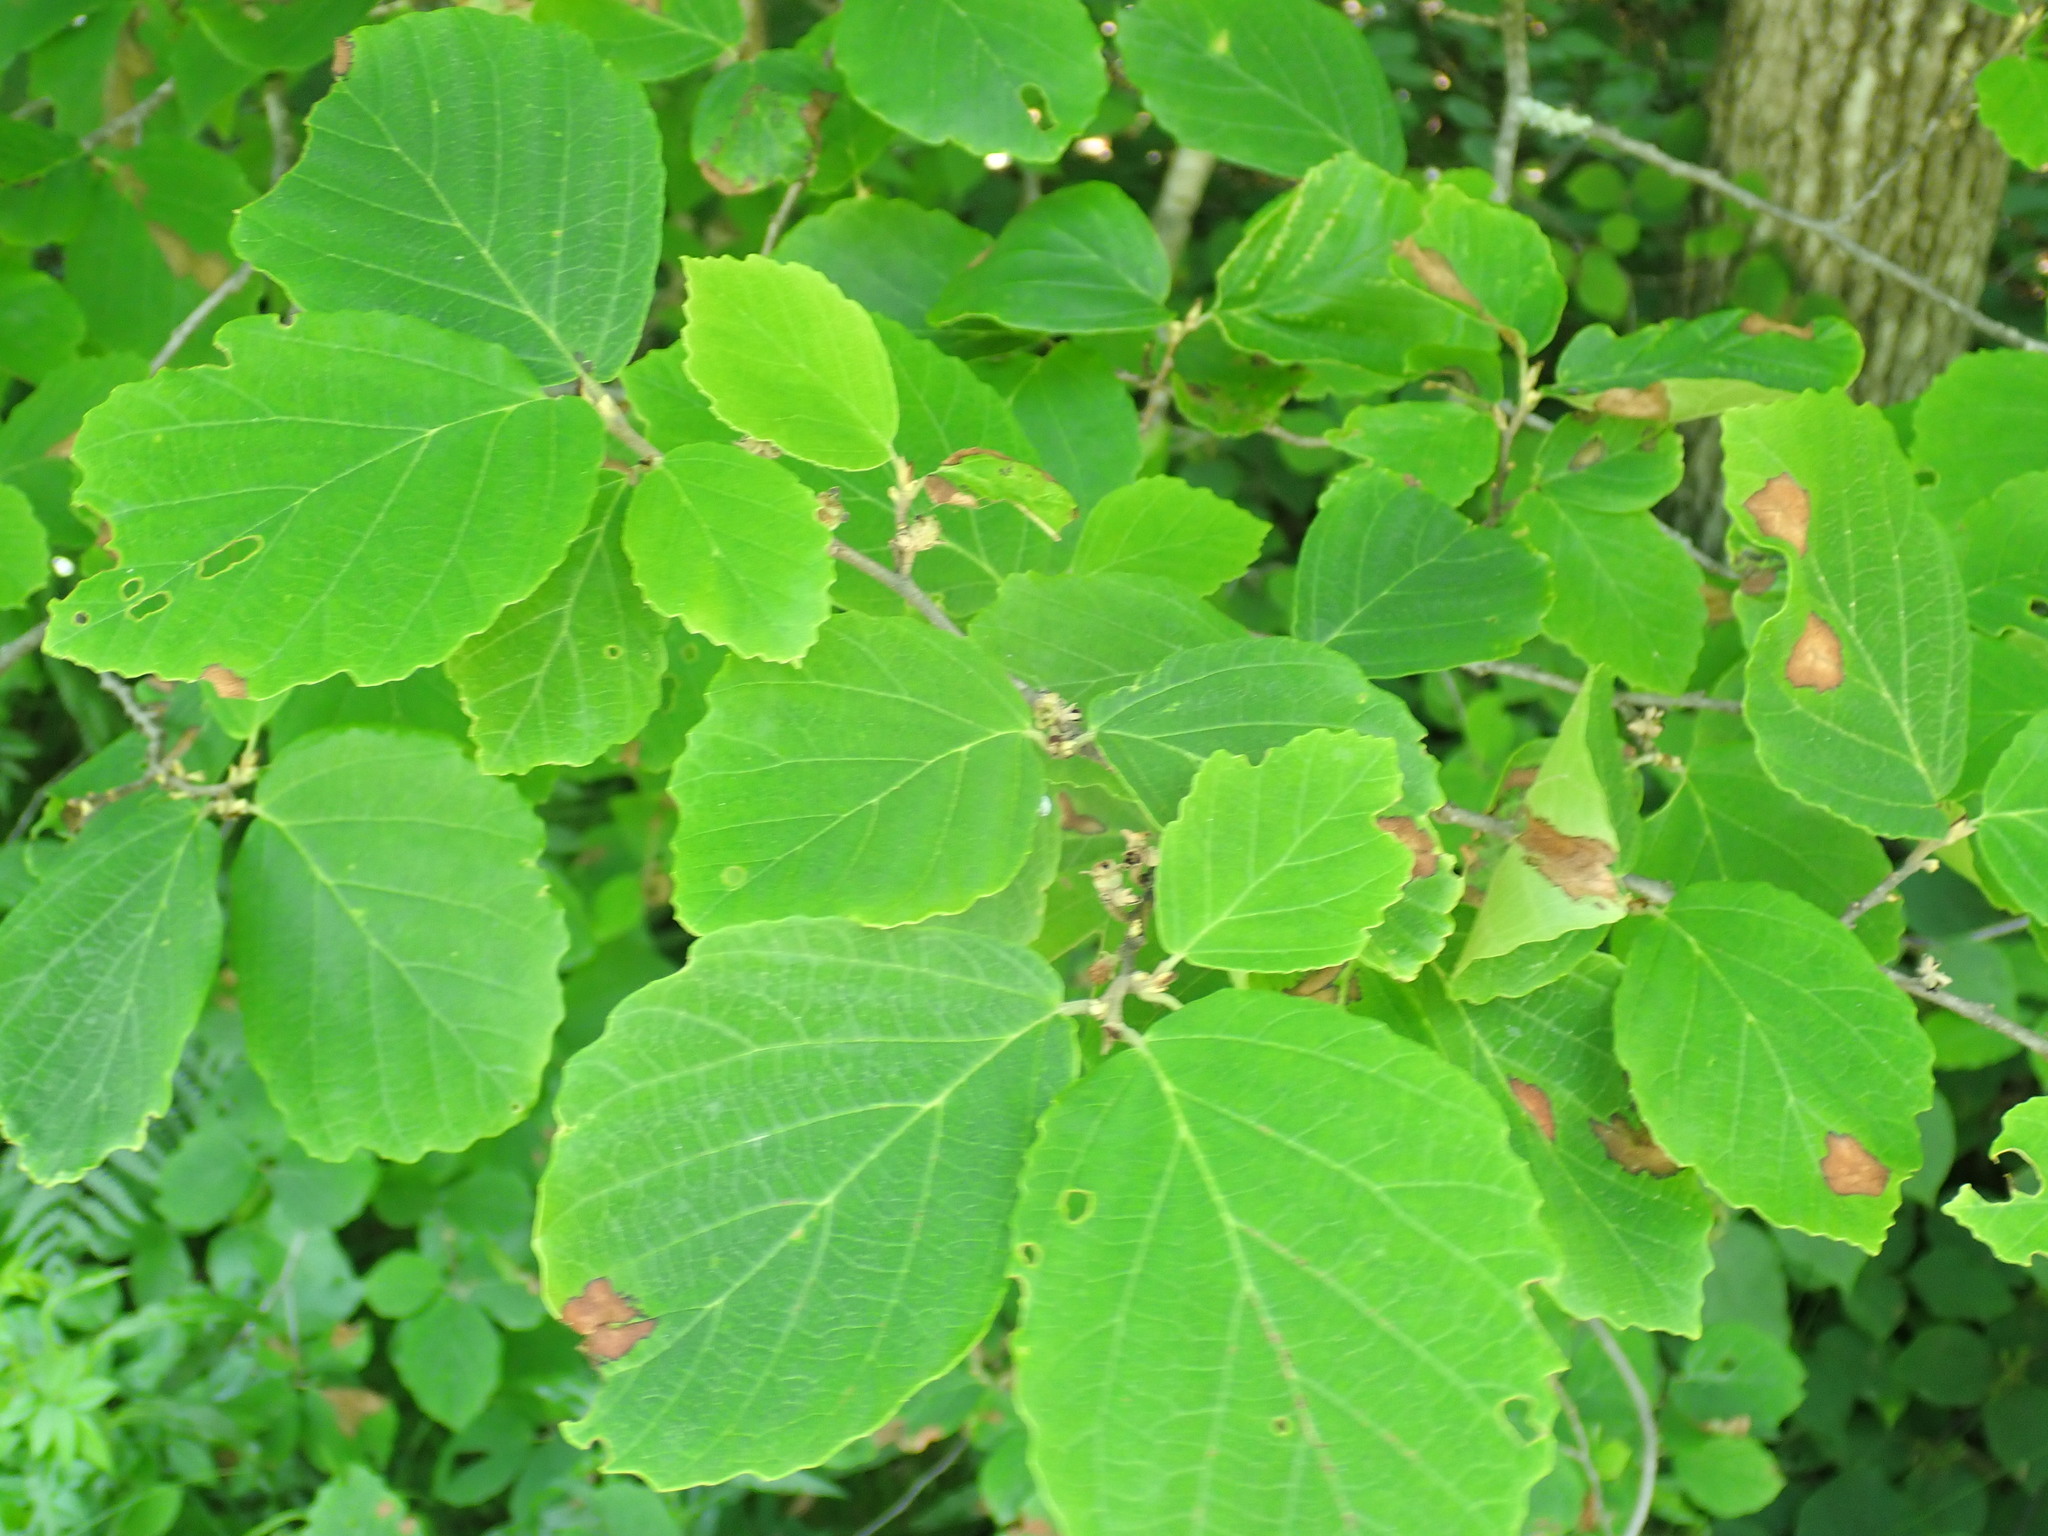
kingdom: Plantae
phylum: Tracheophyta
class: Magnoliopsida
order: Saxifragales
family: Hamamelidaceae
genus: Hamamelis
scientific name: Hamamelis virginiana
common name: Witch-hazel
